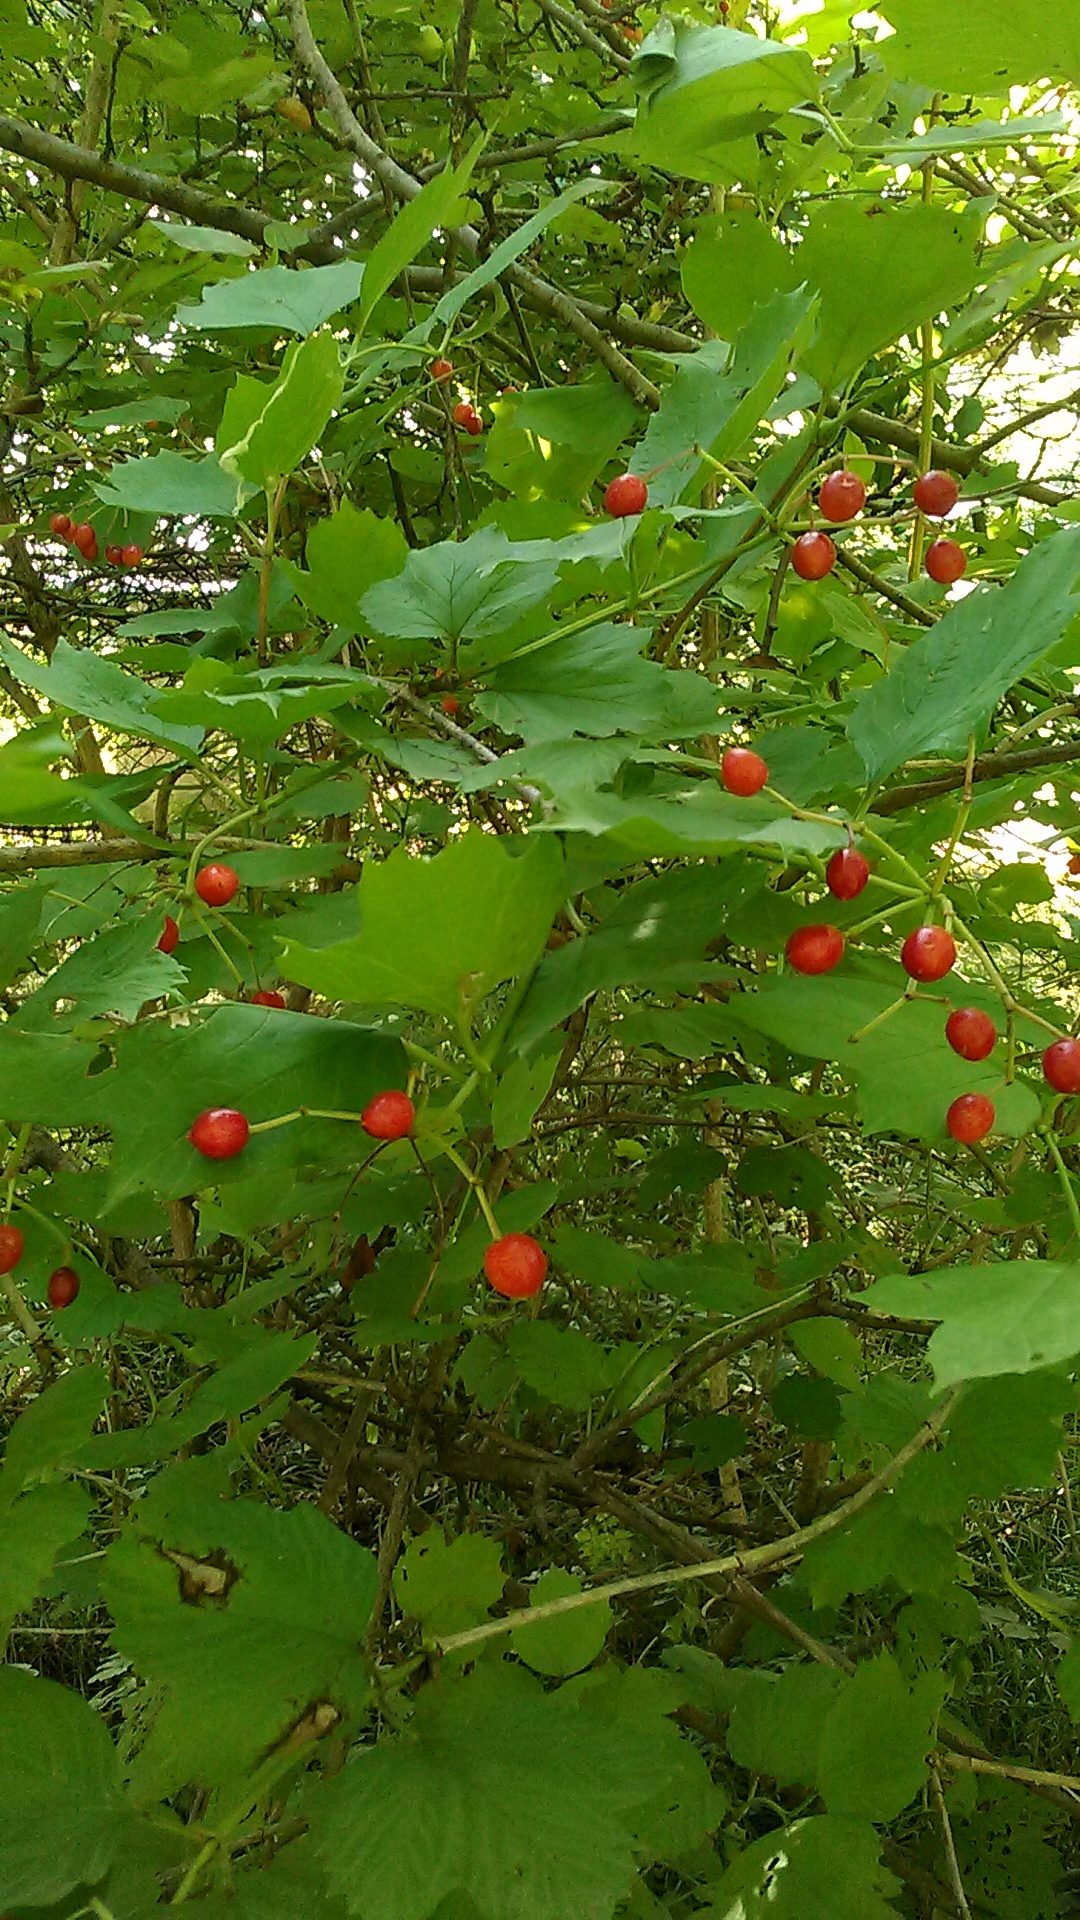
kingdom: Plantae
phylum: Tracheophyta
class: Magnoliopsida
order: Dipsacales
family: Viburnaceae
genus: Viburnum
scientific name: Viburnum opulus
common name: Guelder-rose
